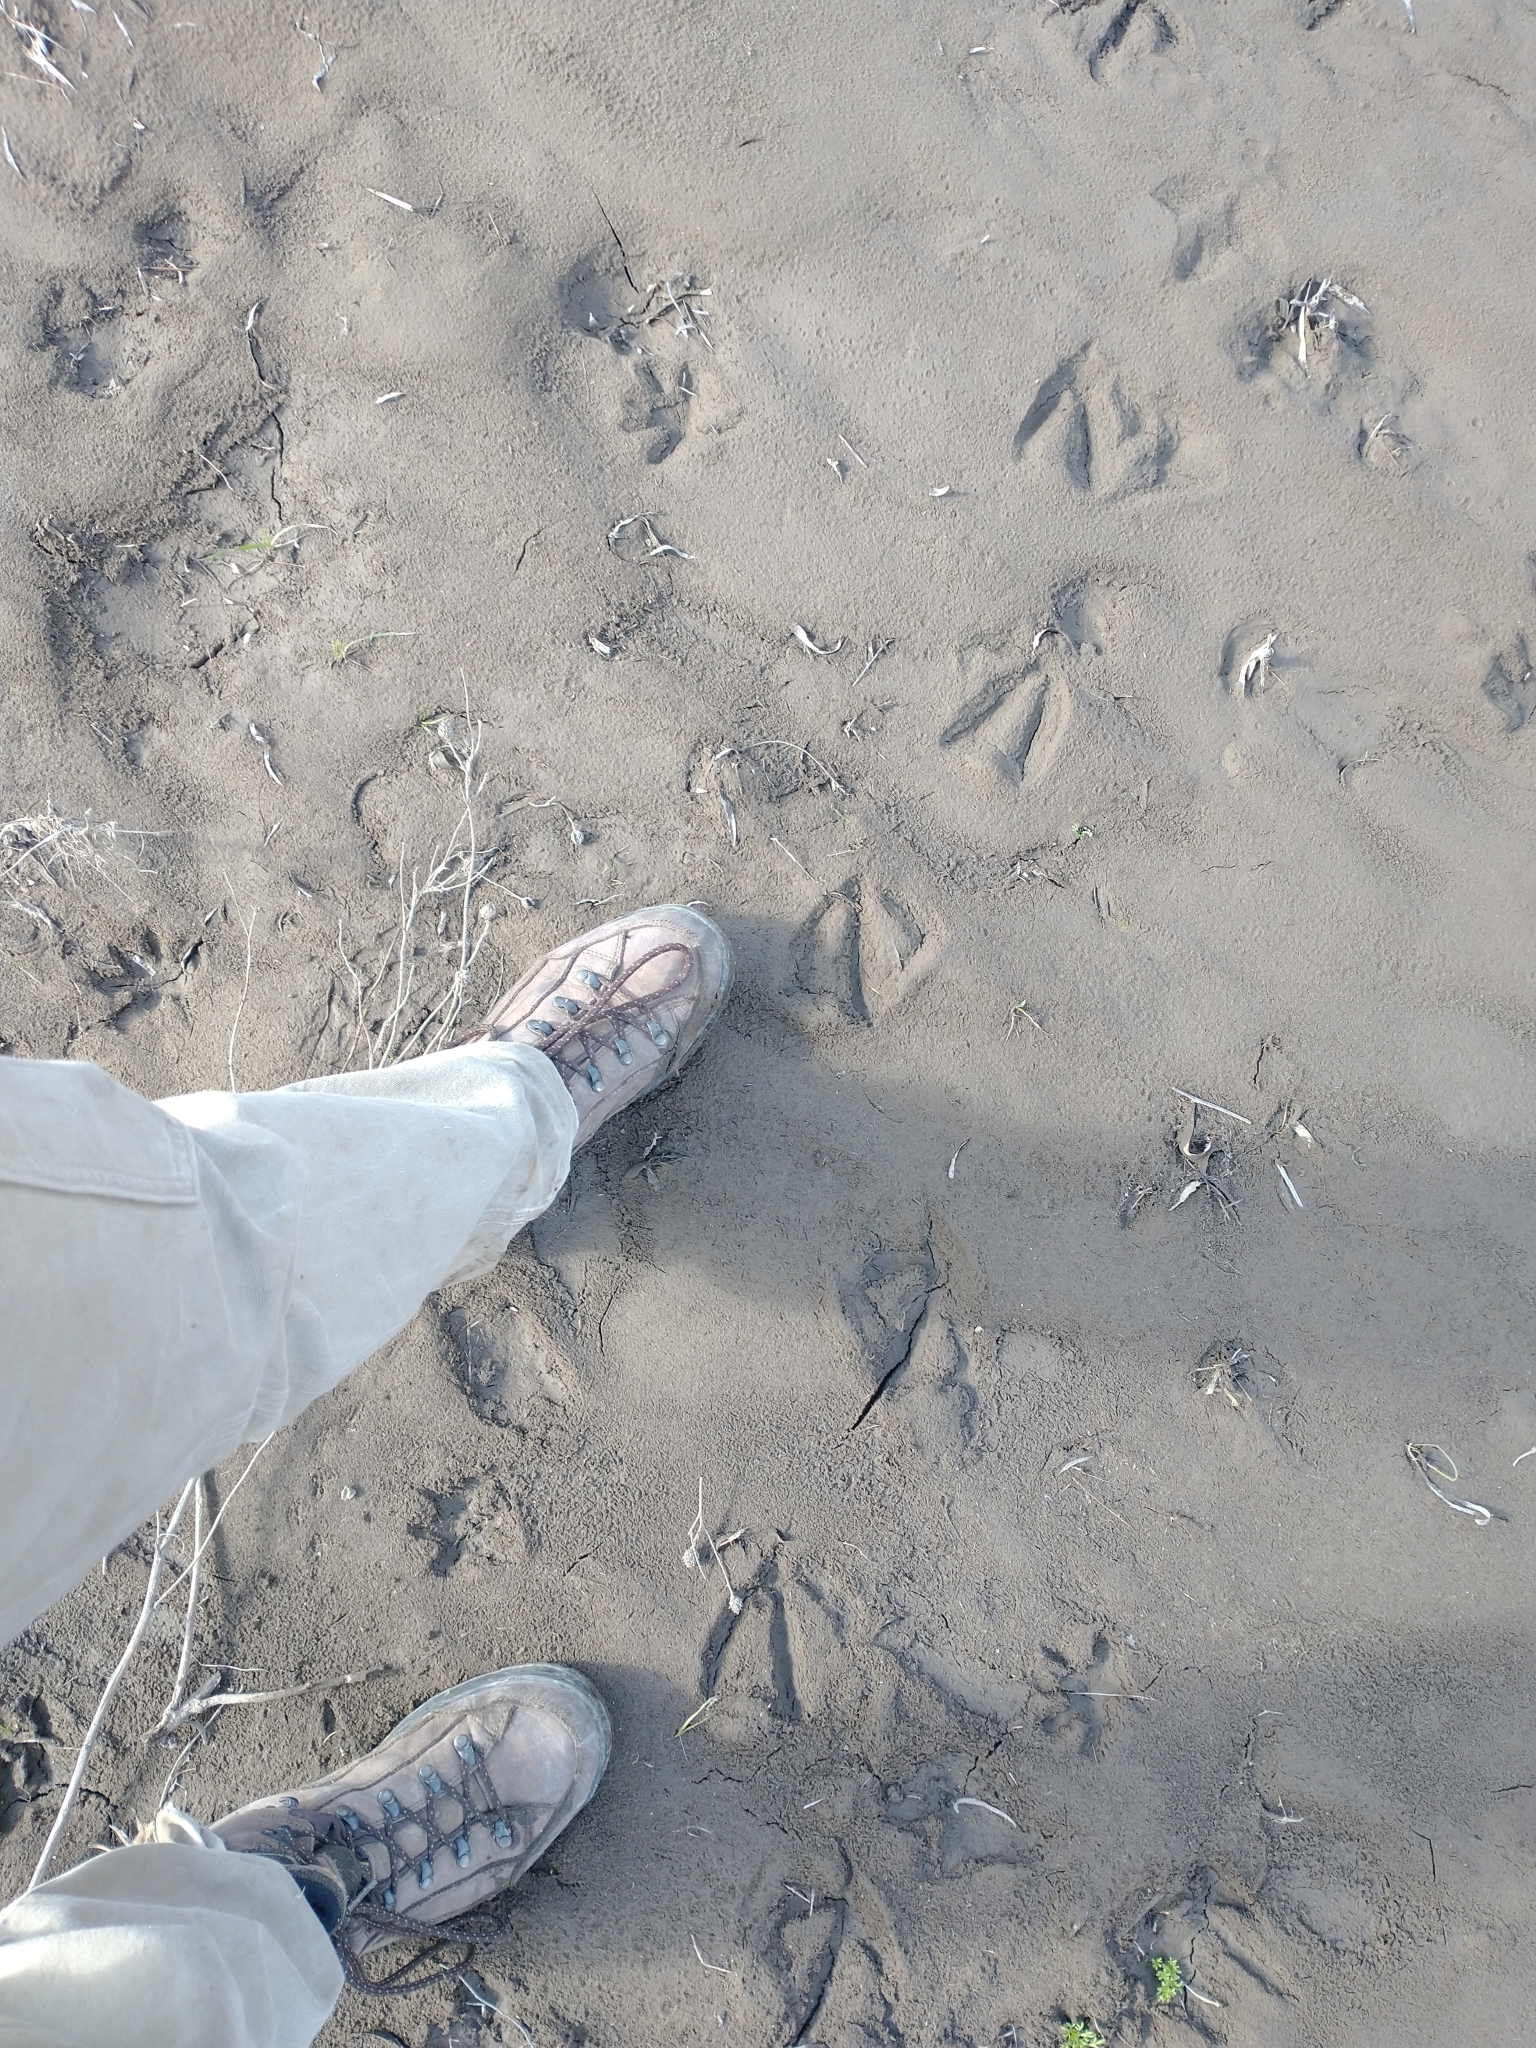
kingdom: Animalia
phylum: Chordata
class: Aves
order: Anseriformes
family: Anatidae
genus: Branta
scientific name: Branta canadensis
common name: Canada goose
